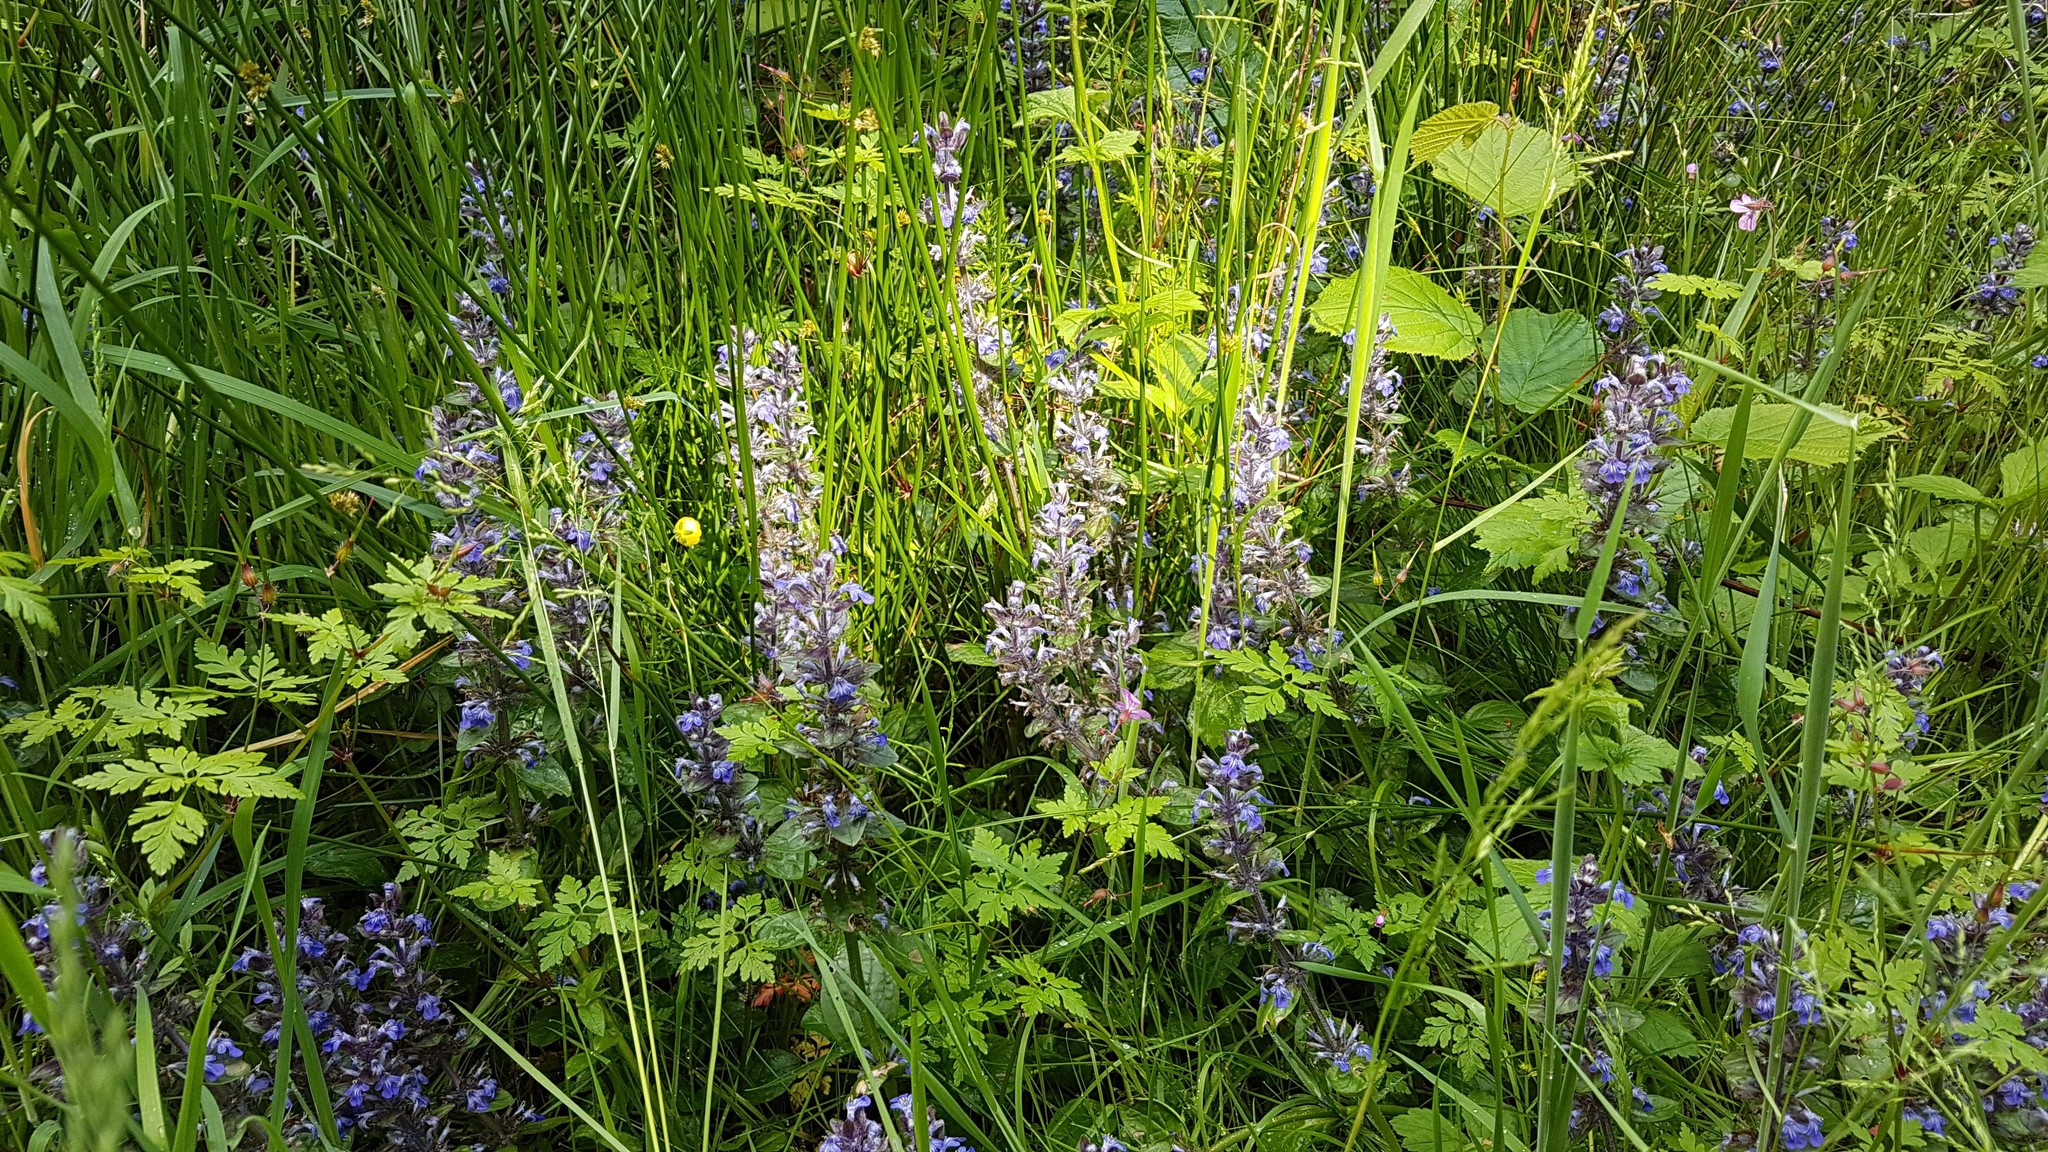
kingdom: Plantae
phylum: Tracheophyta
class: Magnoliopsida
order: Lamiales
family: Lamiaceae
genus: Ajuga
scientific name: Ajuga reptans
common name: Bugle
